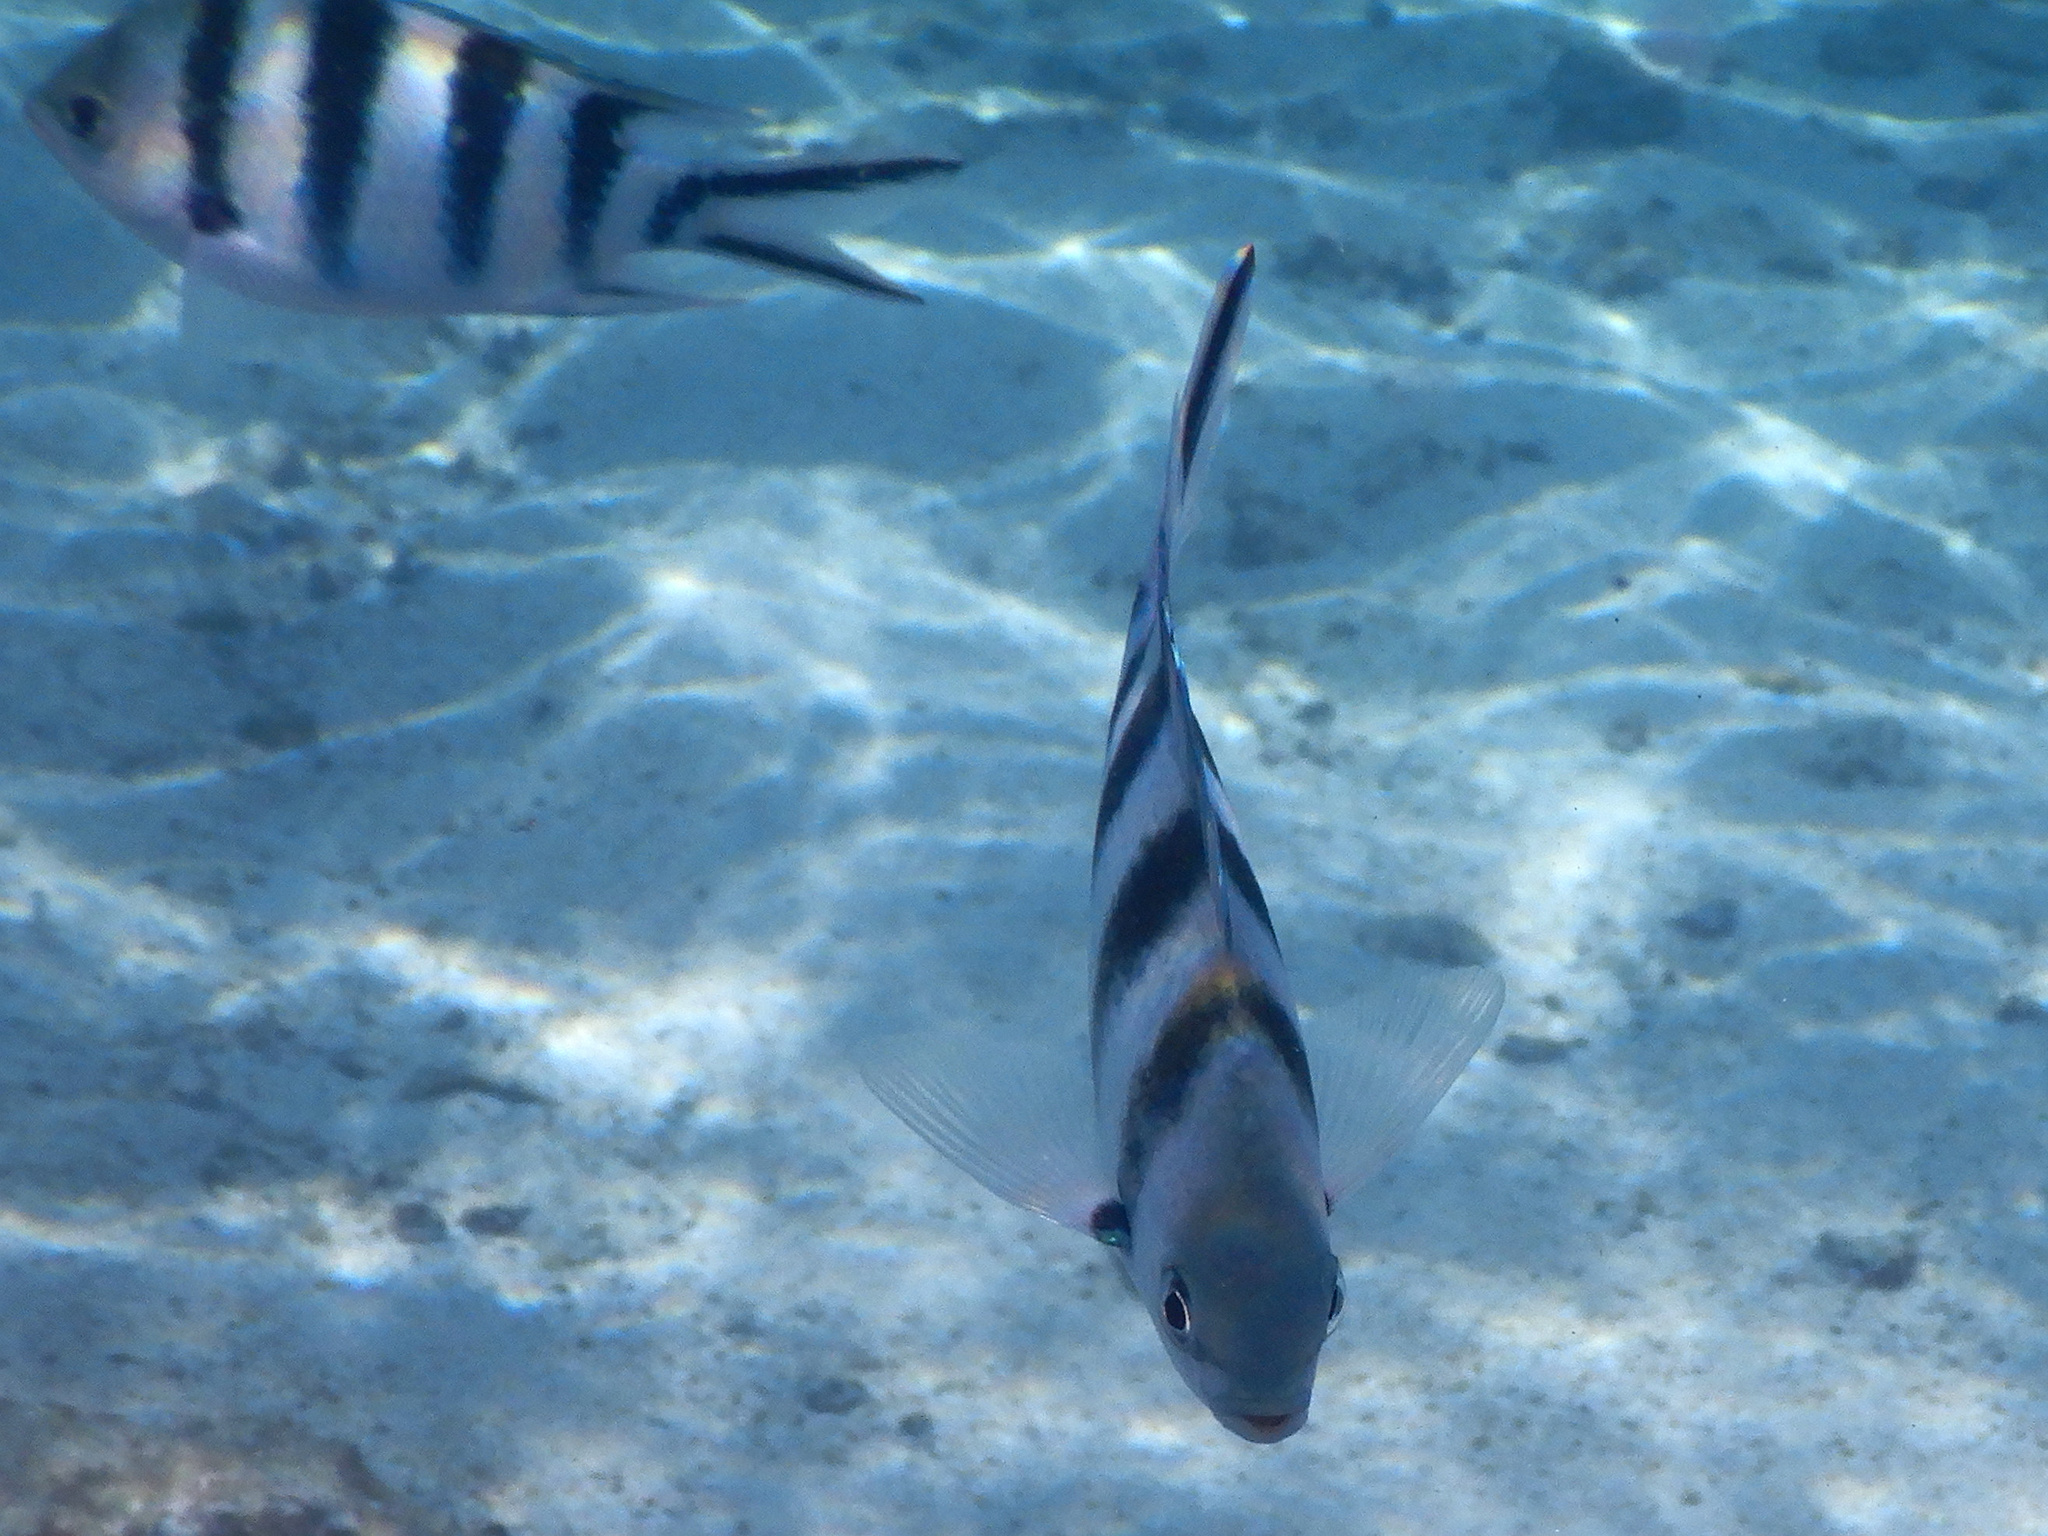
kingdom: Animalia
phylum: Chordata
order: Perciformes
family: Pomacentridae
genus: Abudefduf
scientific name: Abudefduf sexfasciatus
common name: Scissortail sergeant
